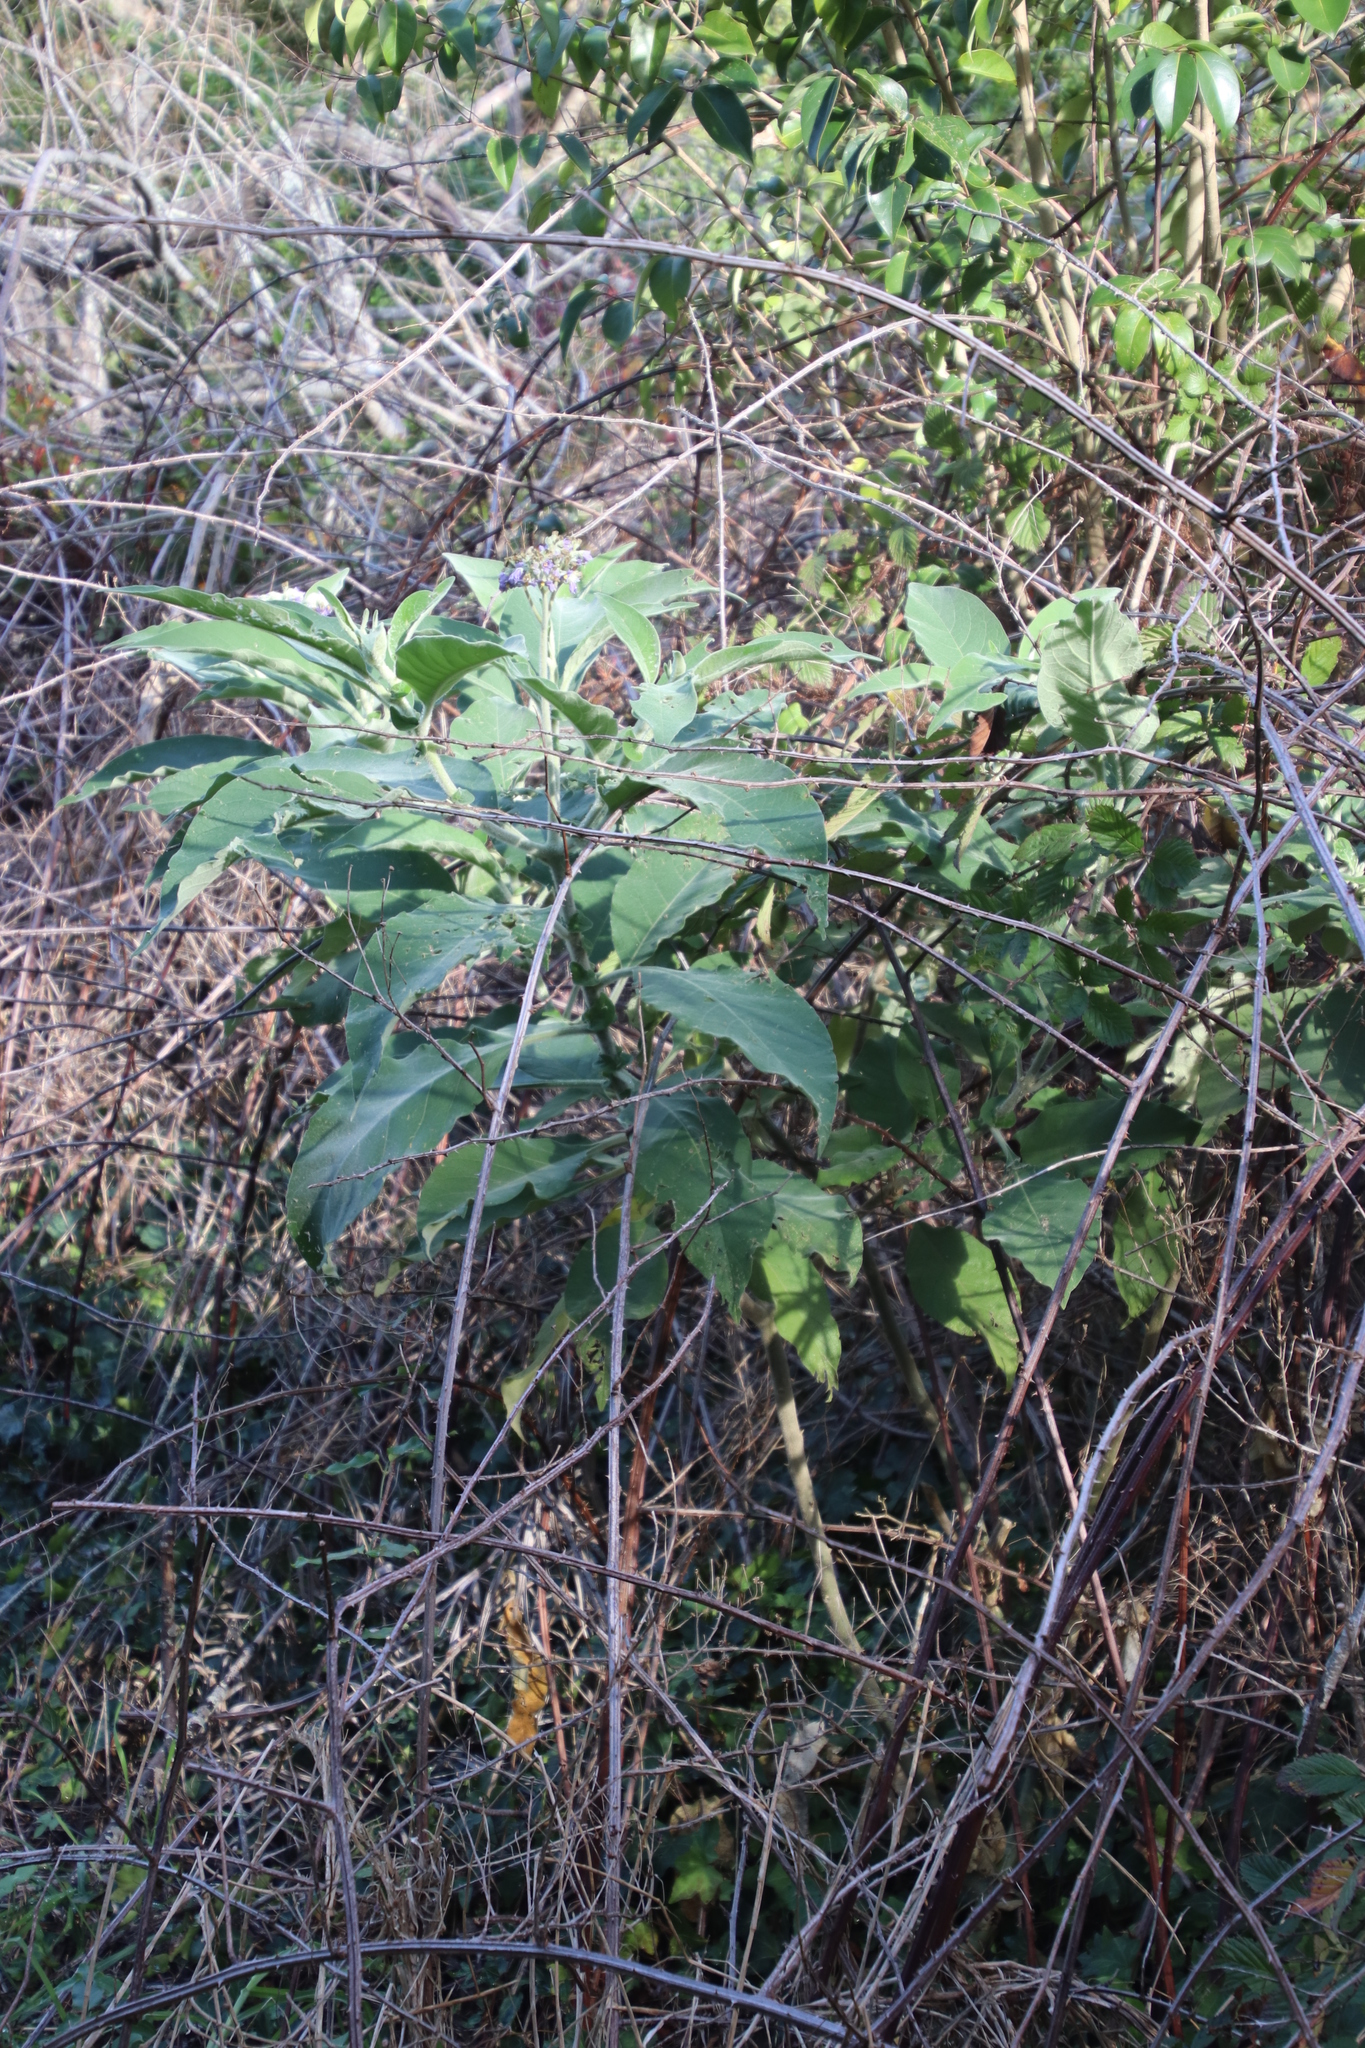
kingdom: Plantae
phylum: Tracheophyta
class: Magnoliopsida
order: Solanales
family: Solanaceae
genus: Solanum
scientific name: Solanum mauritianum
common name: Earleaf nightshade
